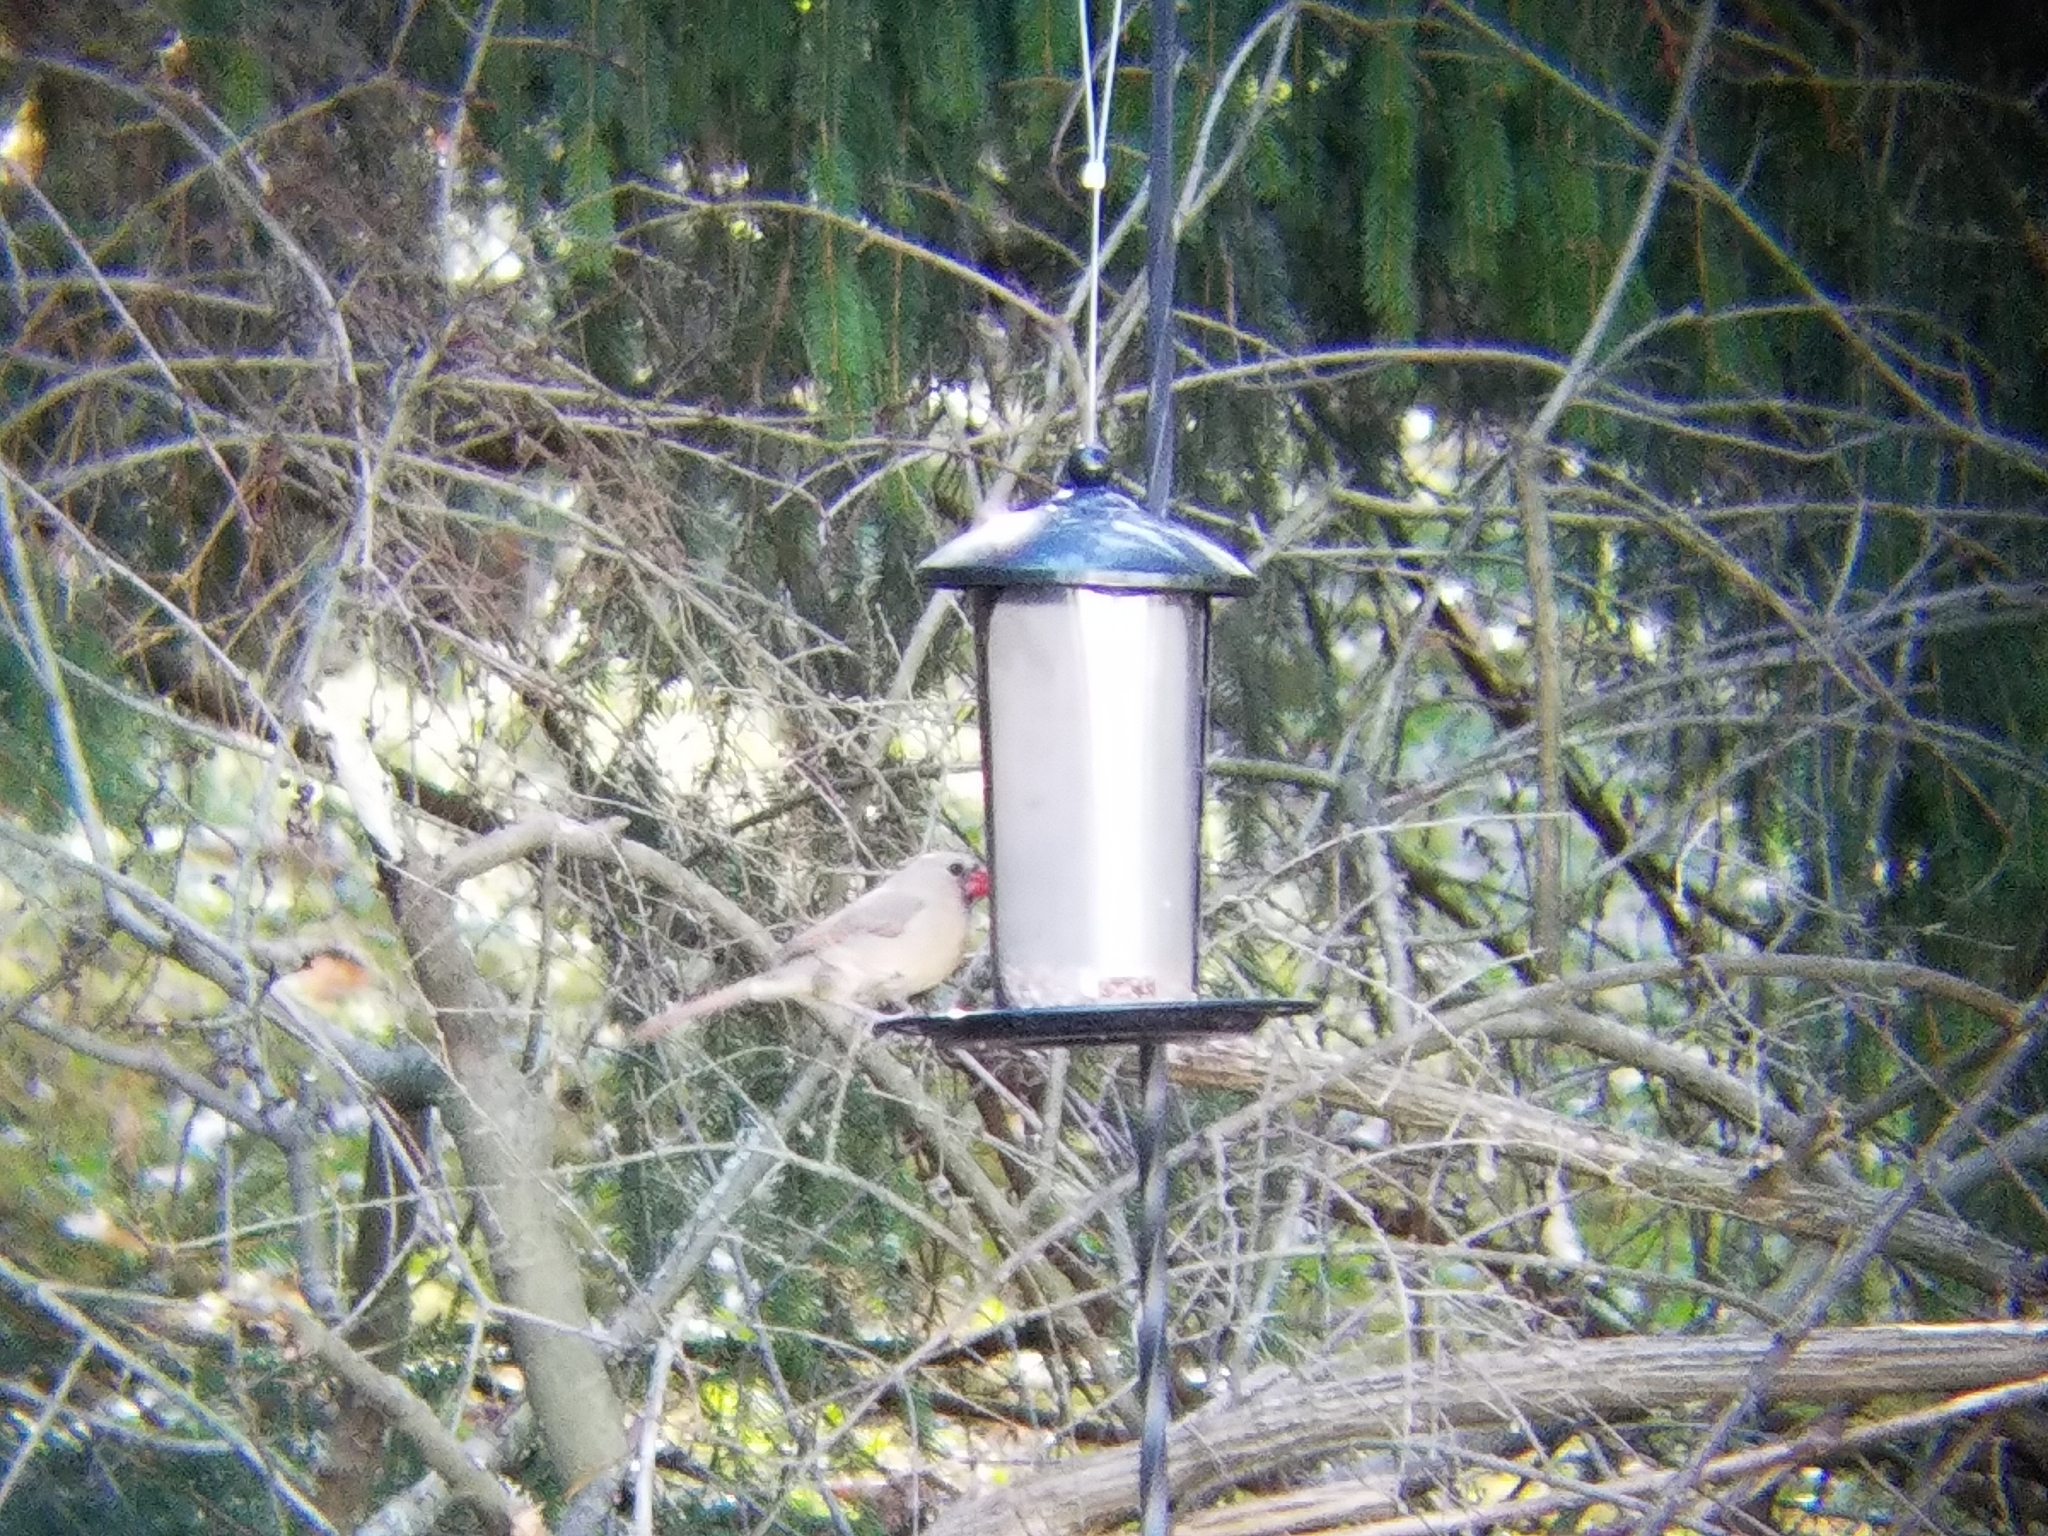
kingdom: Animalia
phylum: Chordata
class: Aves
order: Passeriformes
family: Cardinalidae
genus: Cardinalis
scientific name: Cardinalis cardinalis
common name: Northern cardinal
